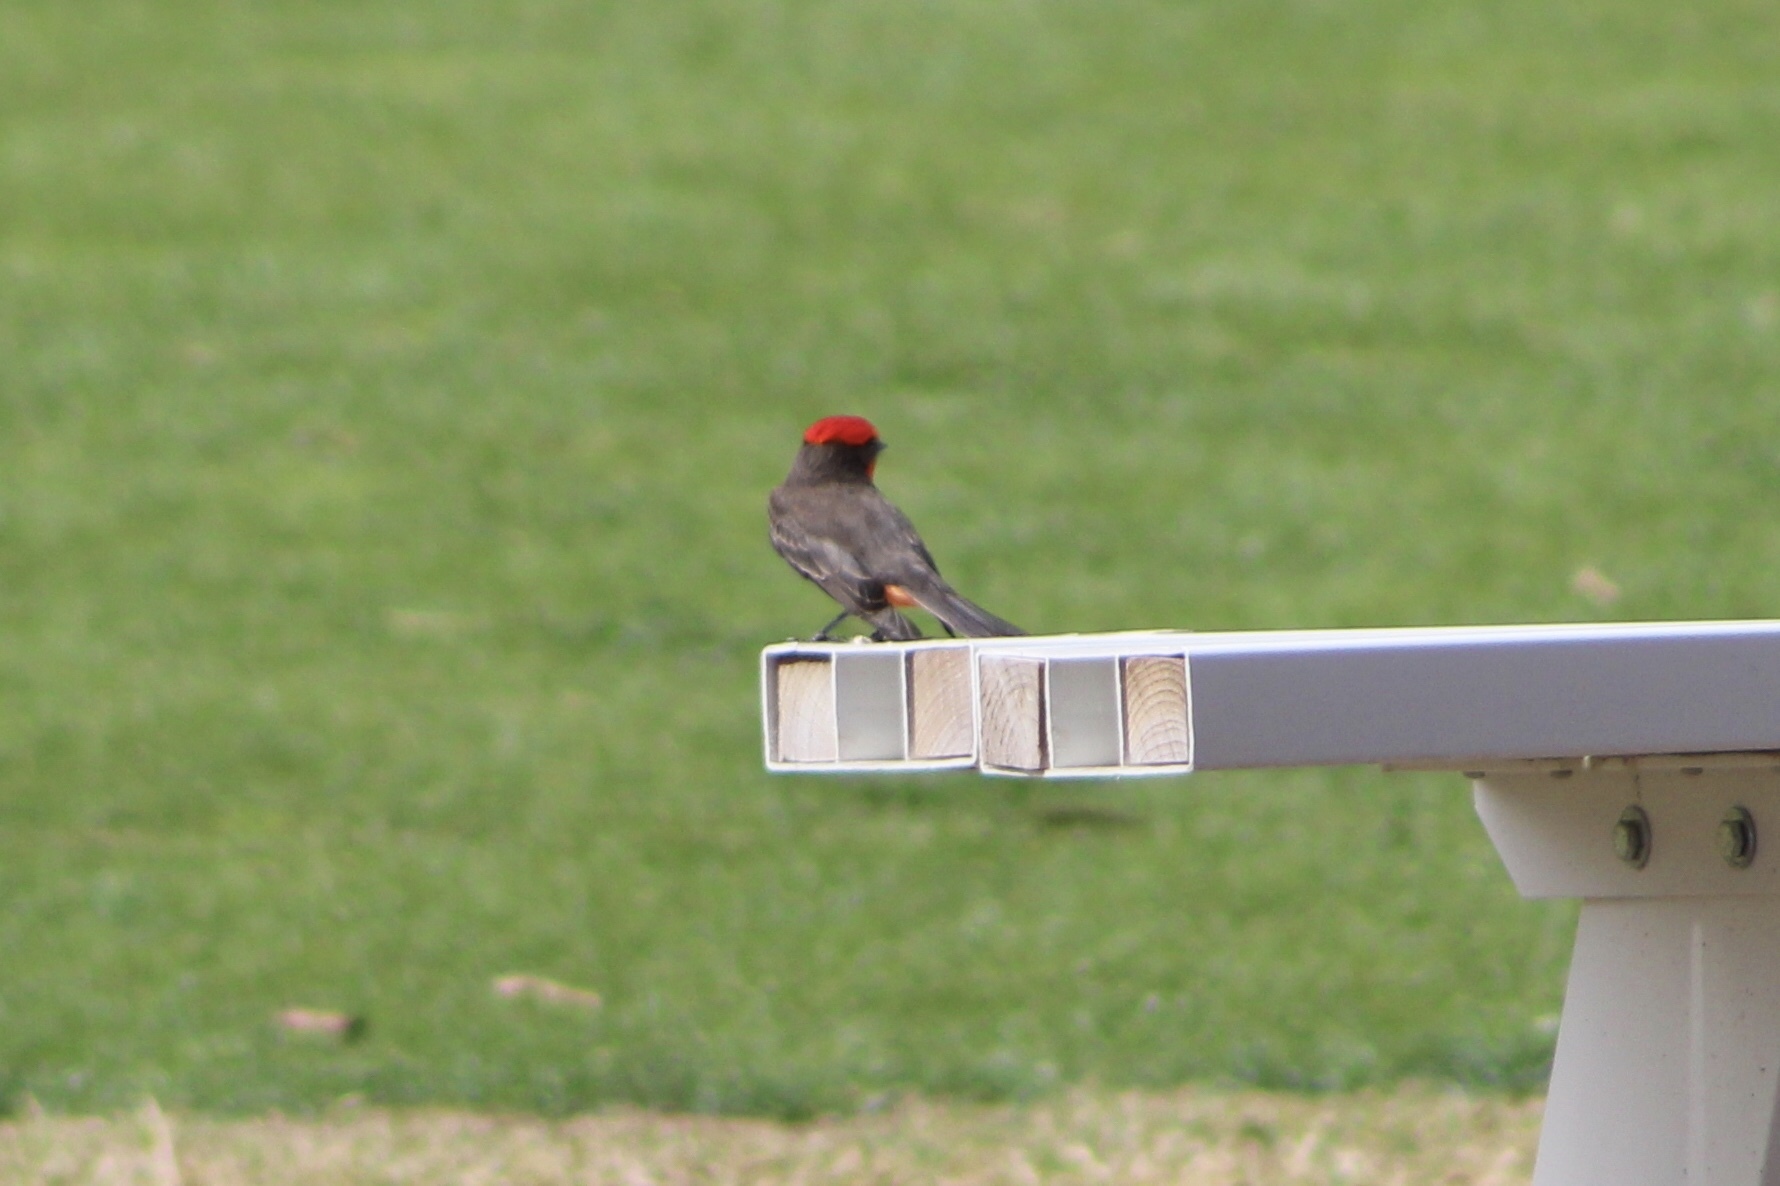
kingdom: Animalia
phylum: Chordata
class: Aves
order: Passeriformes
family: Tyrannidae
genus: Pyrocephalus
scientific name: Pyrocephalus rubinus
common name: Vermilion flycatcher
